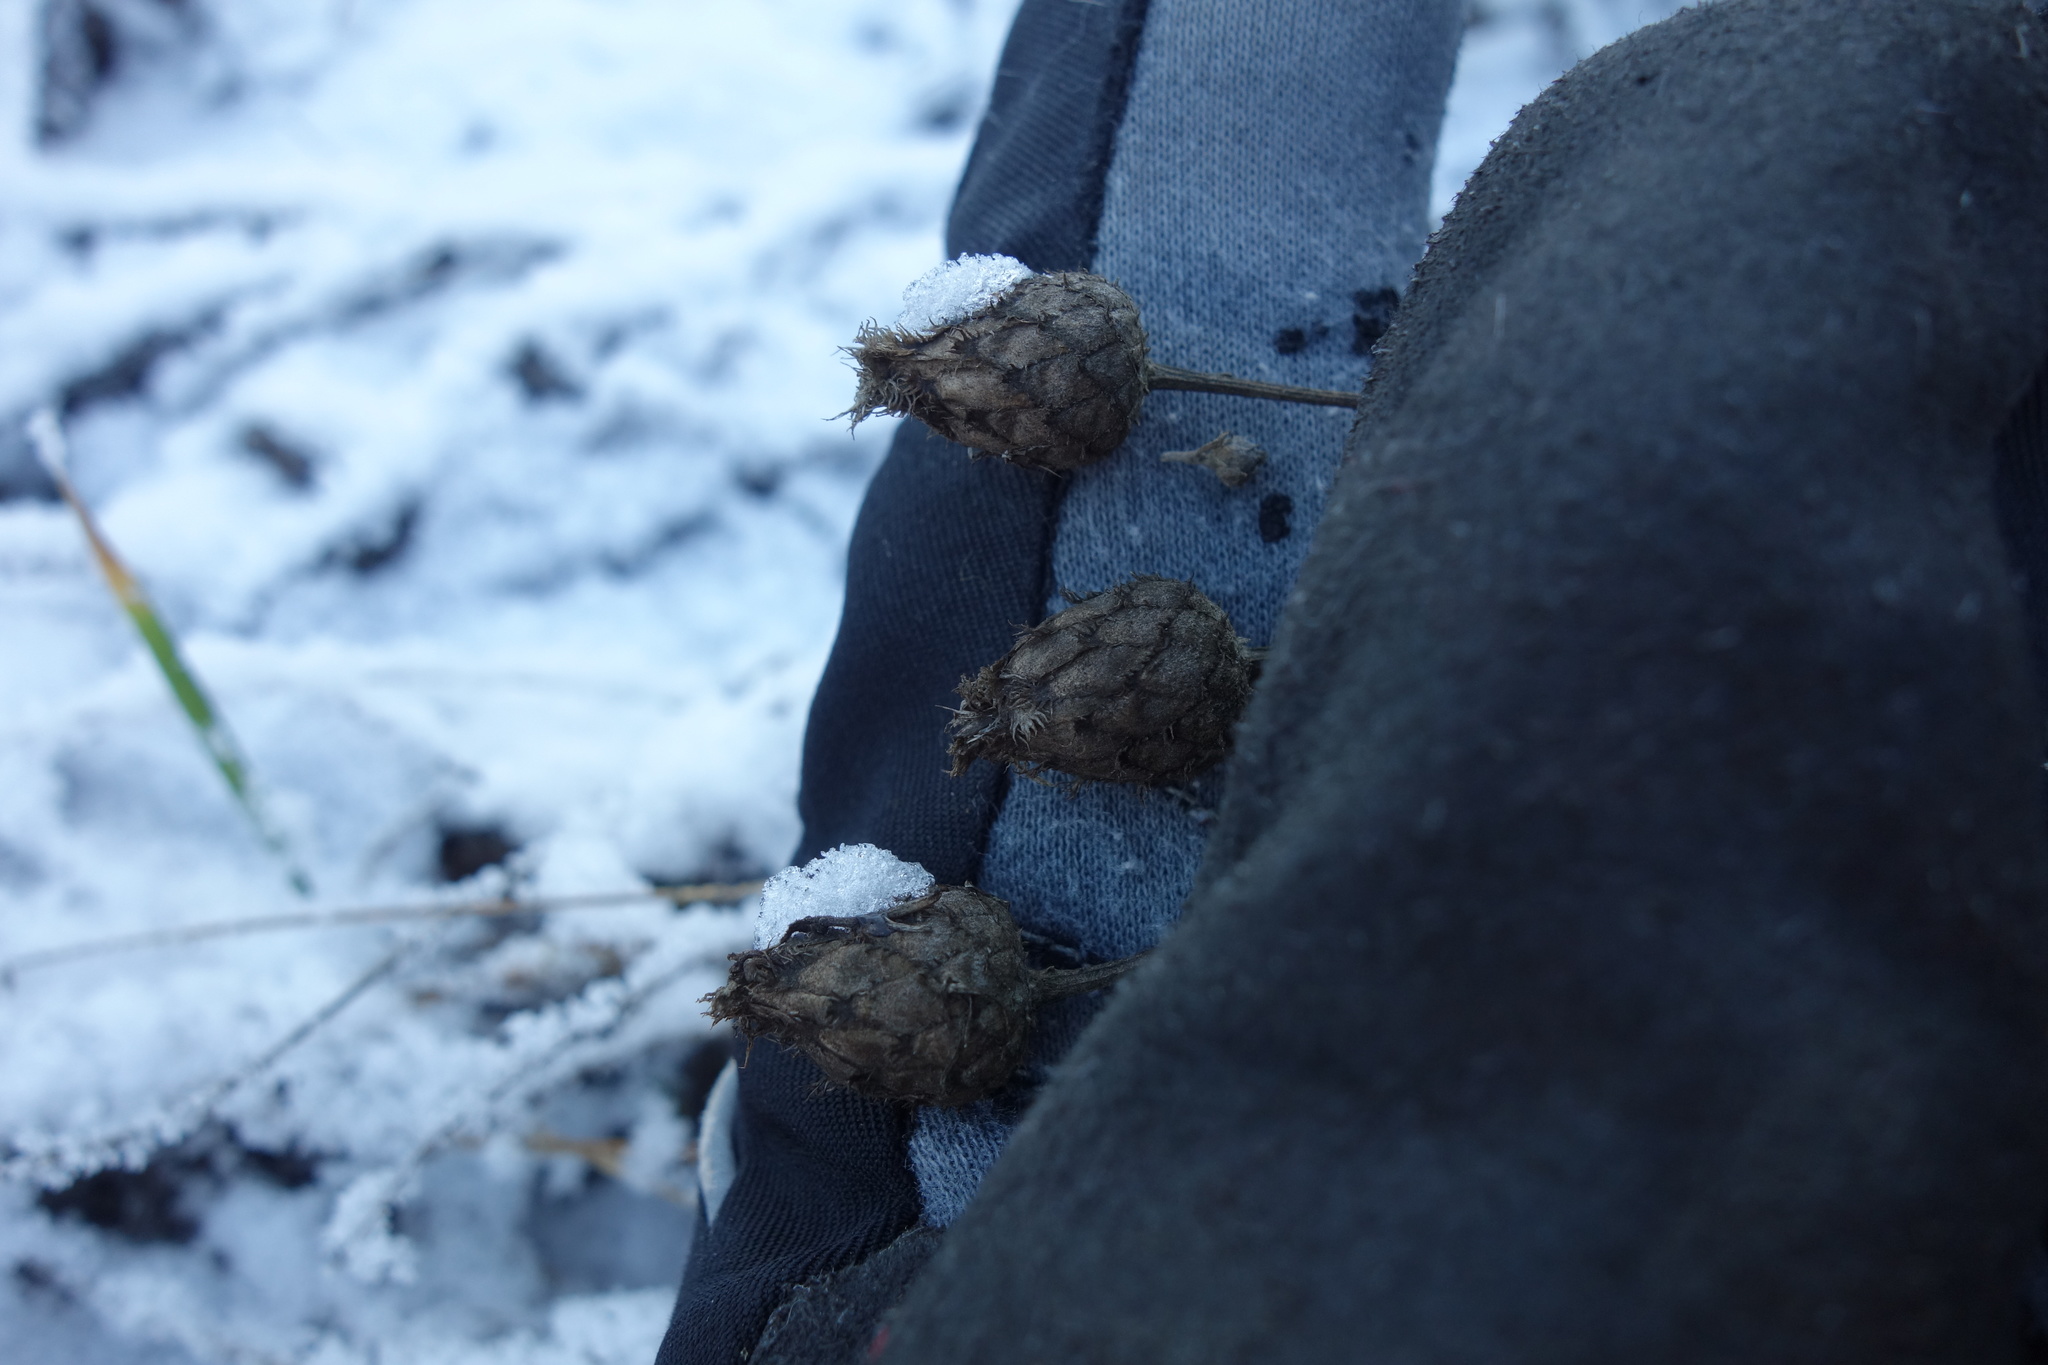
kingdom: Plantae
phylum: Tracheophyta
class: Magnoliopsida
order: Asterales
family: Asteraceae
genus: Centaurea
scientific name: Centaurea scabiosa
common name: Greater knapweed
